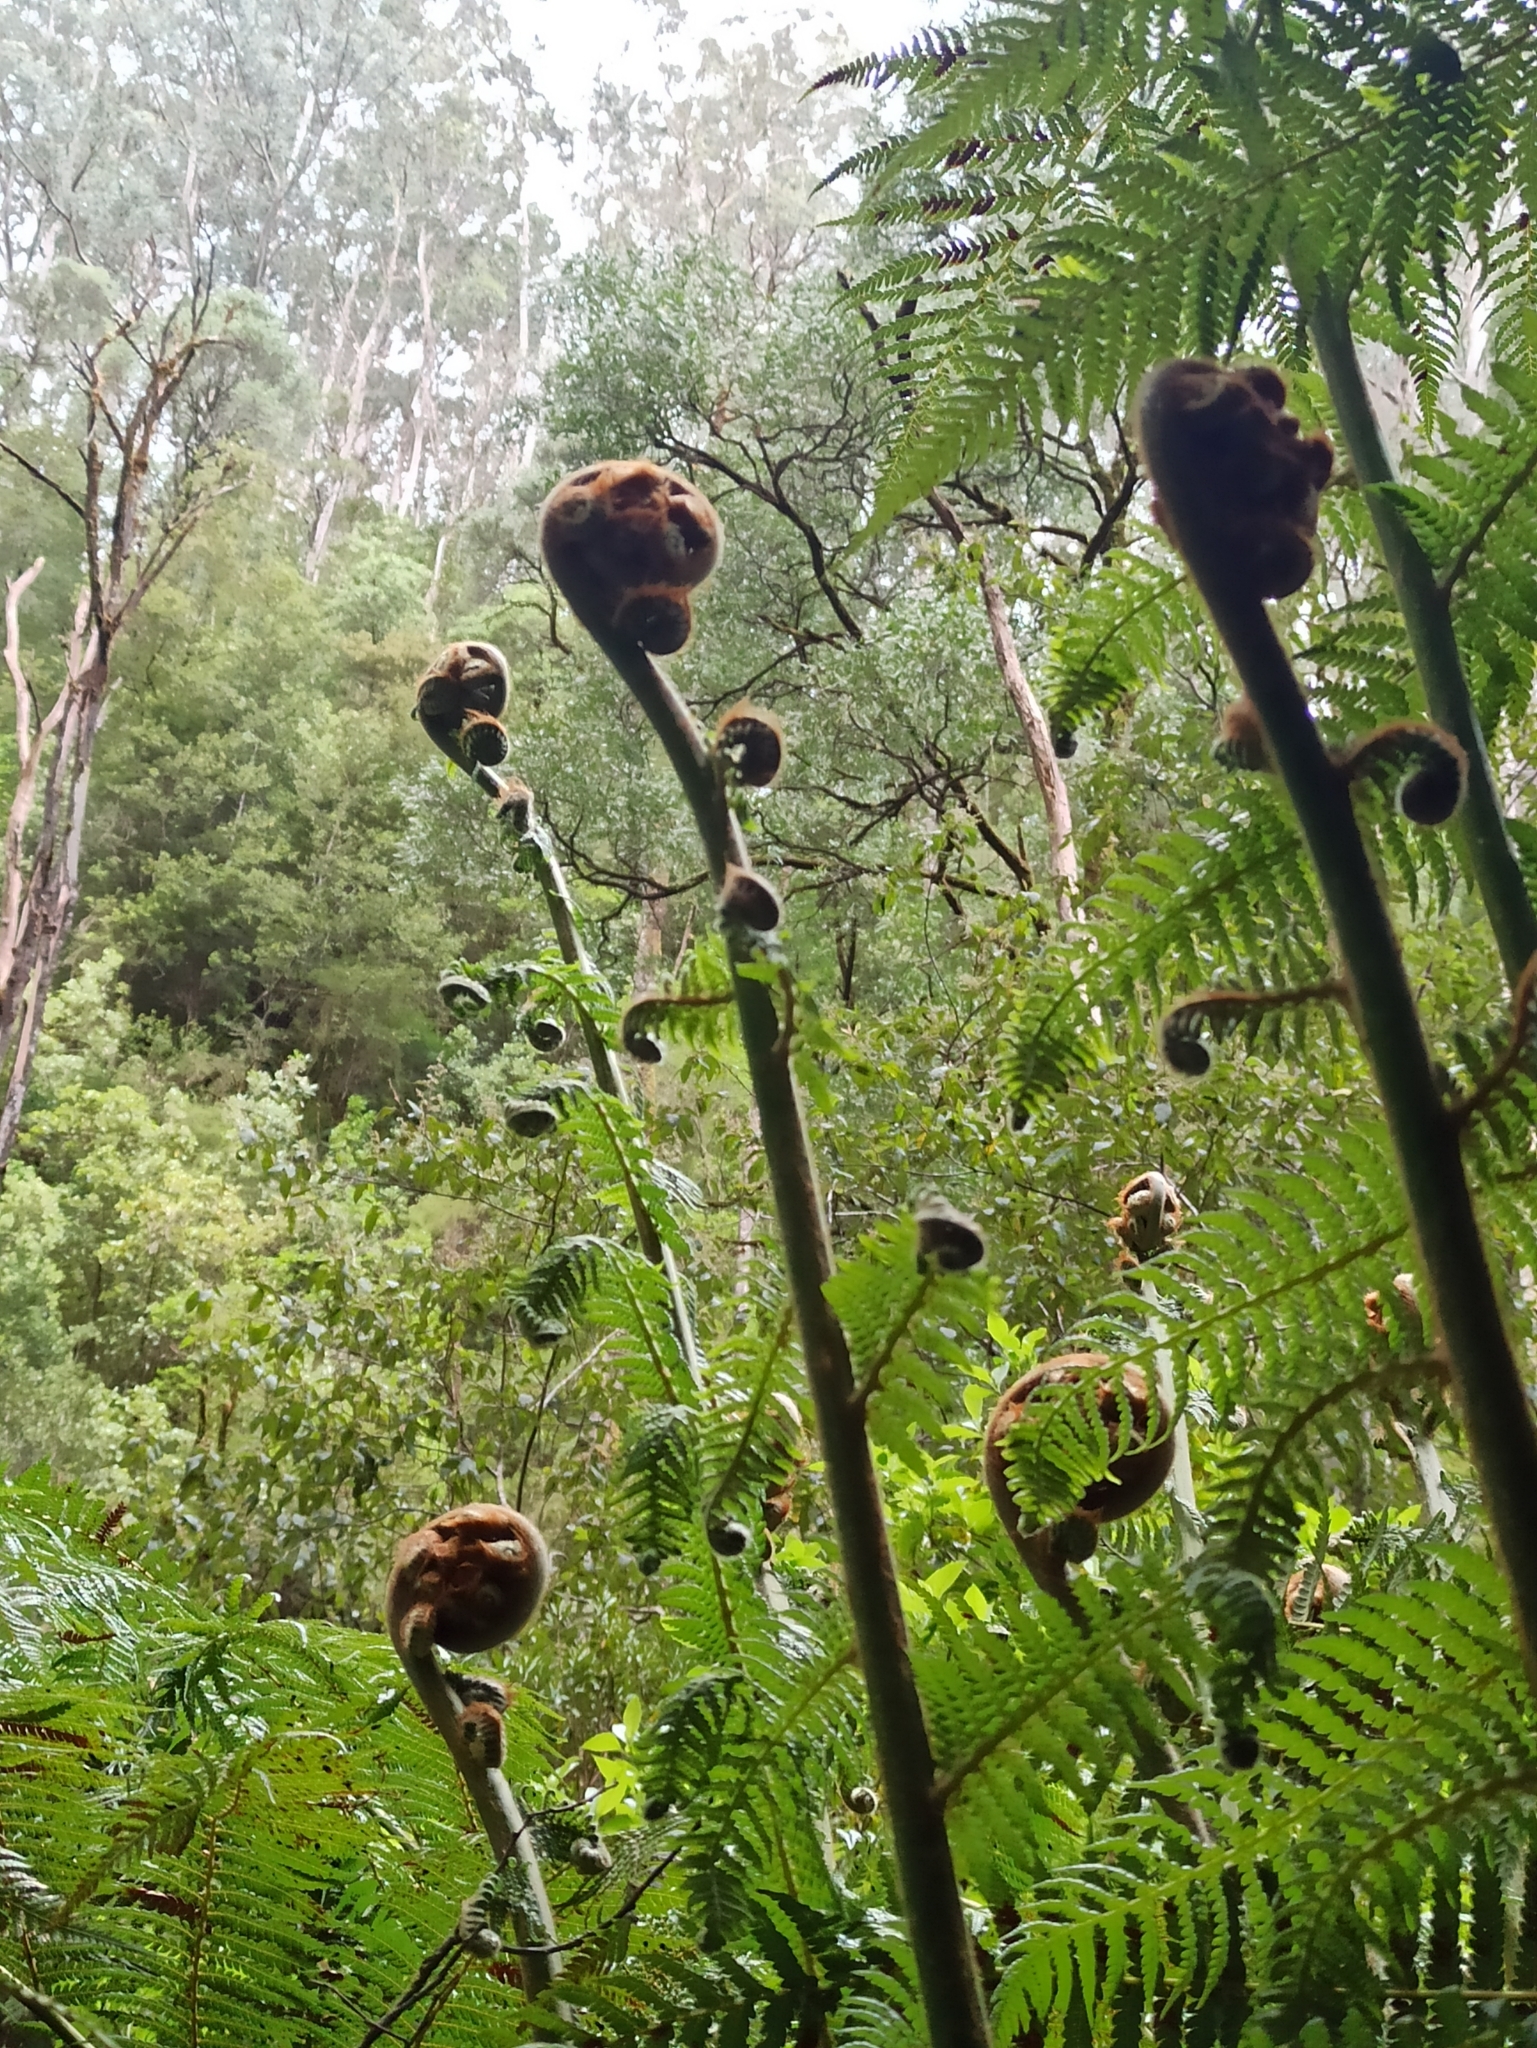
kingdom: Plantae
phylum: Tracheophyta
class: Polypodiopsida
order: Cyatheales
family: Dicksoniaceae
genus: Dicksonia
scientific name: Dicksonia antarctica
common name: Australian treefern
